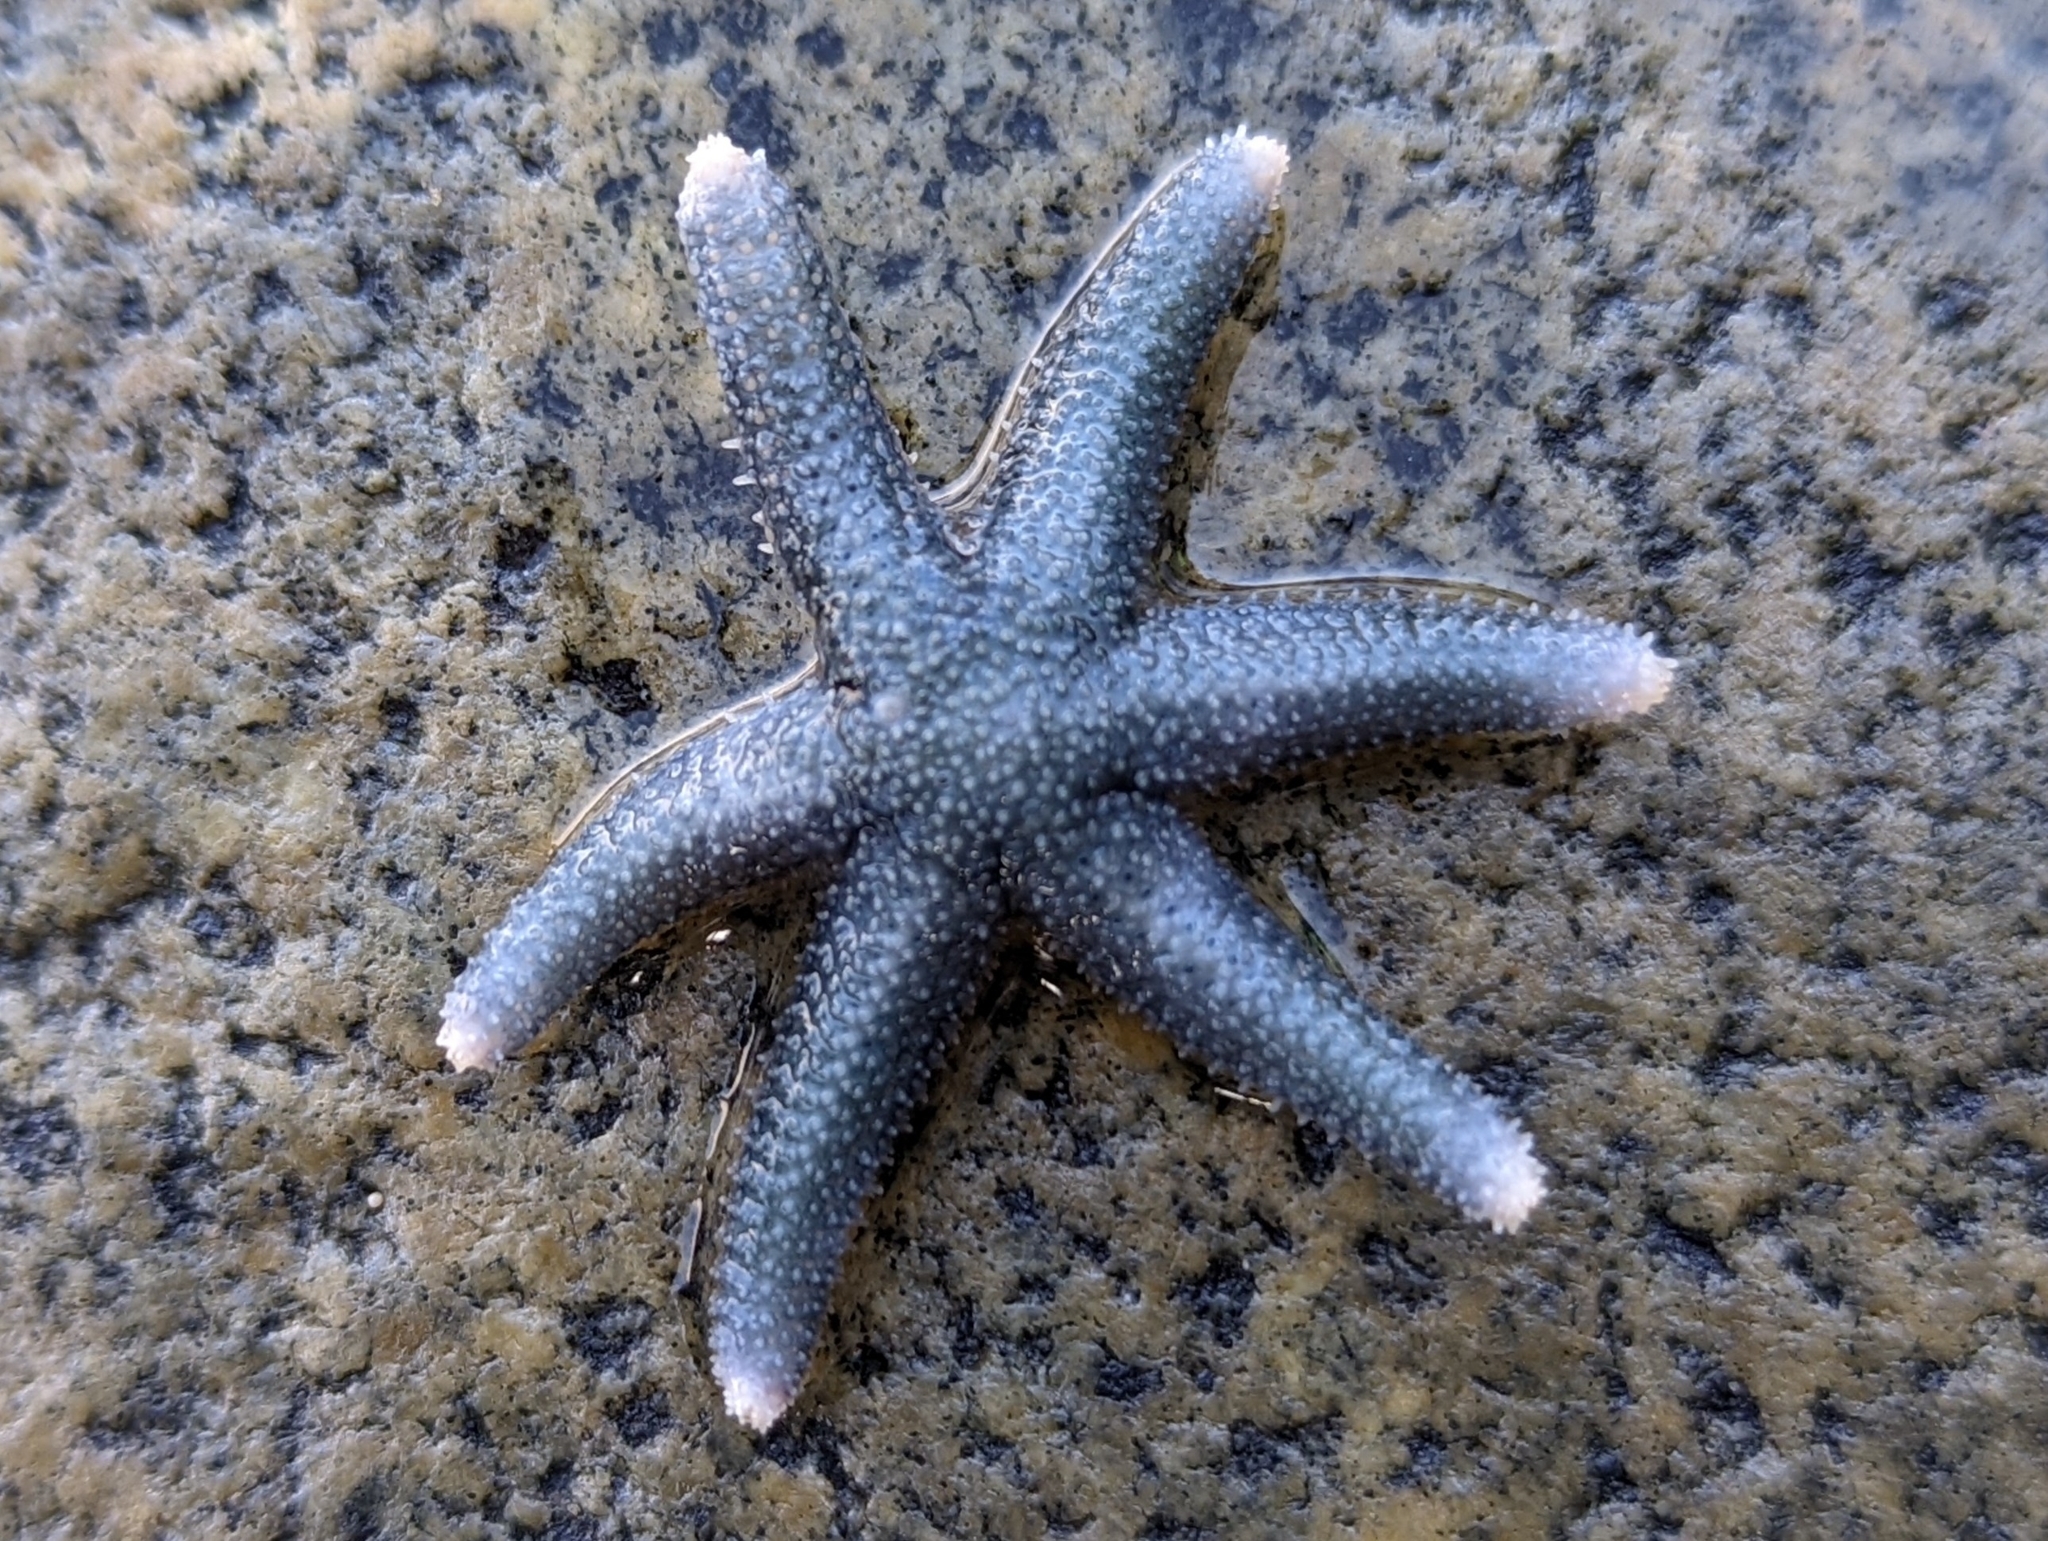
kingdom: Animalia
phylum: Echinodermata
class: Asteroidea
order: Forcipulatida
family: Asteriidae
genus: Leptasterias
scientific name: Leptasterias hexactis
